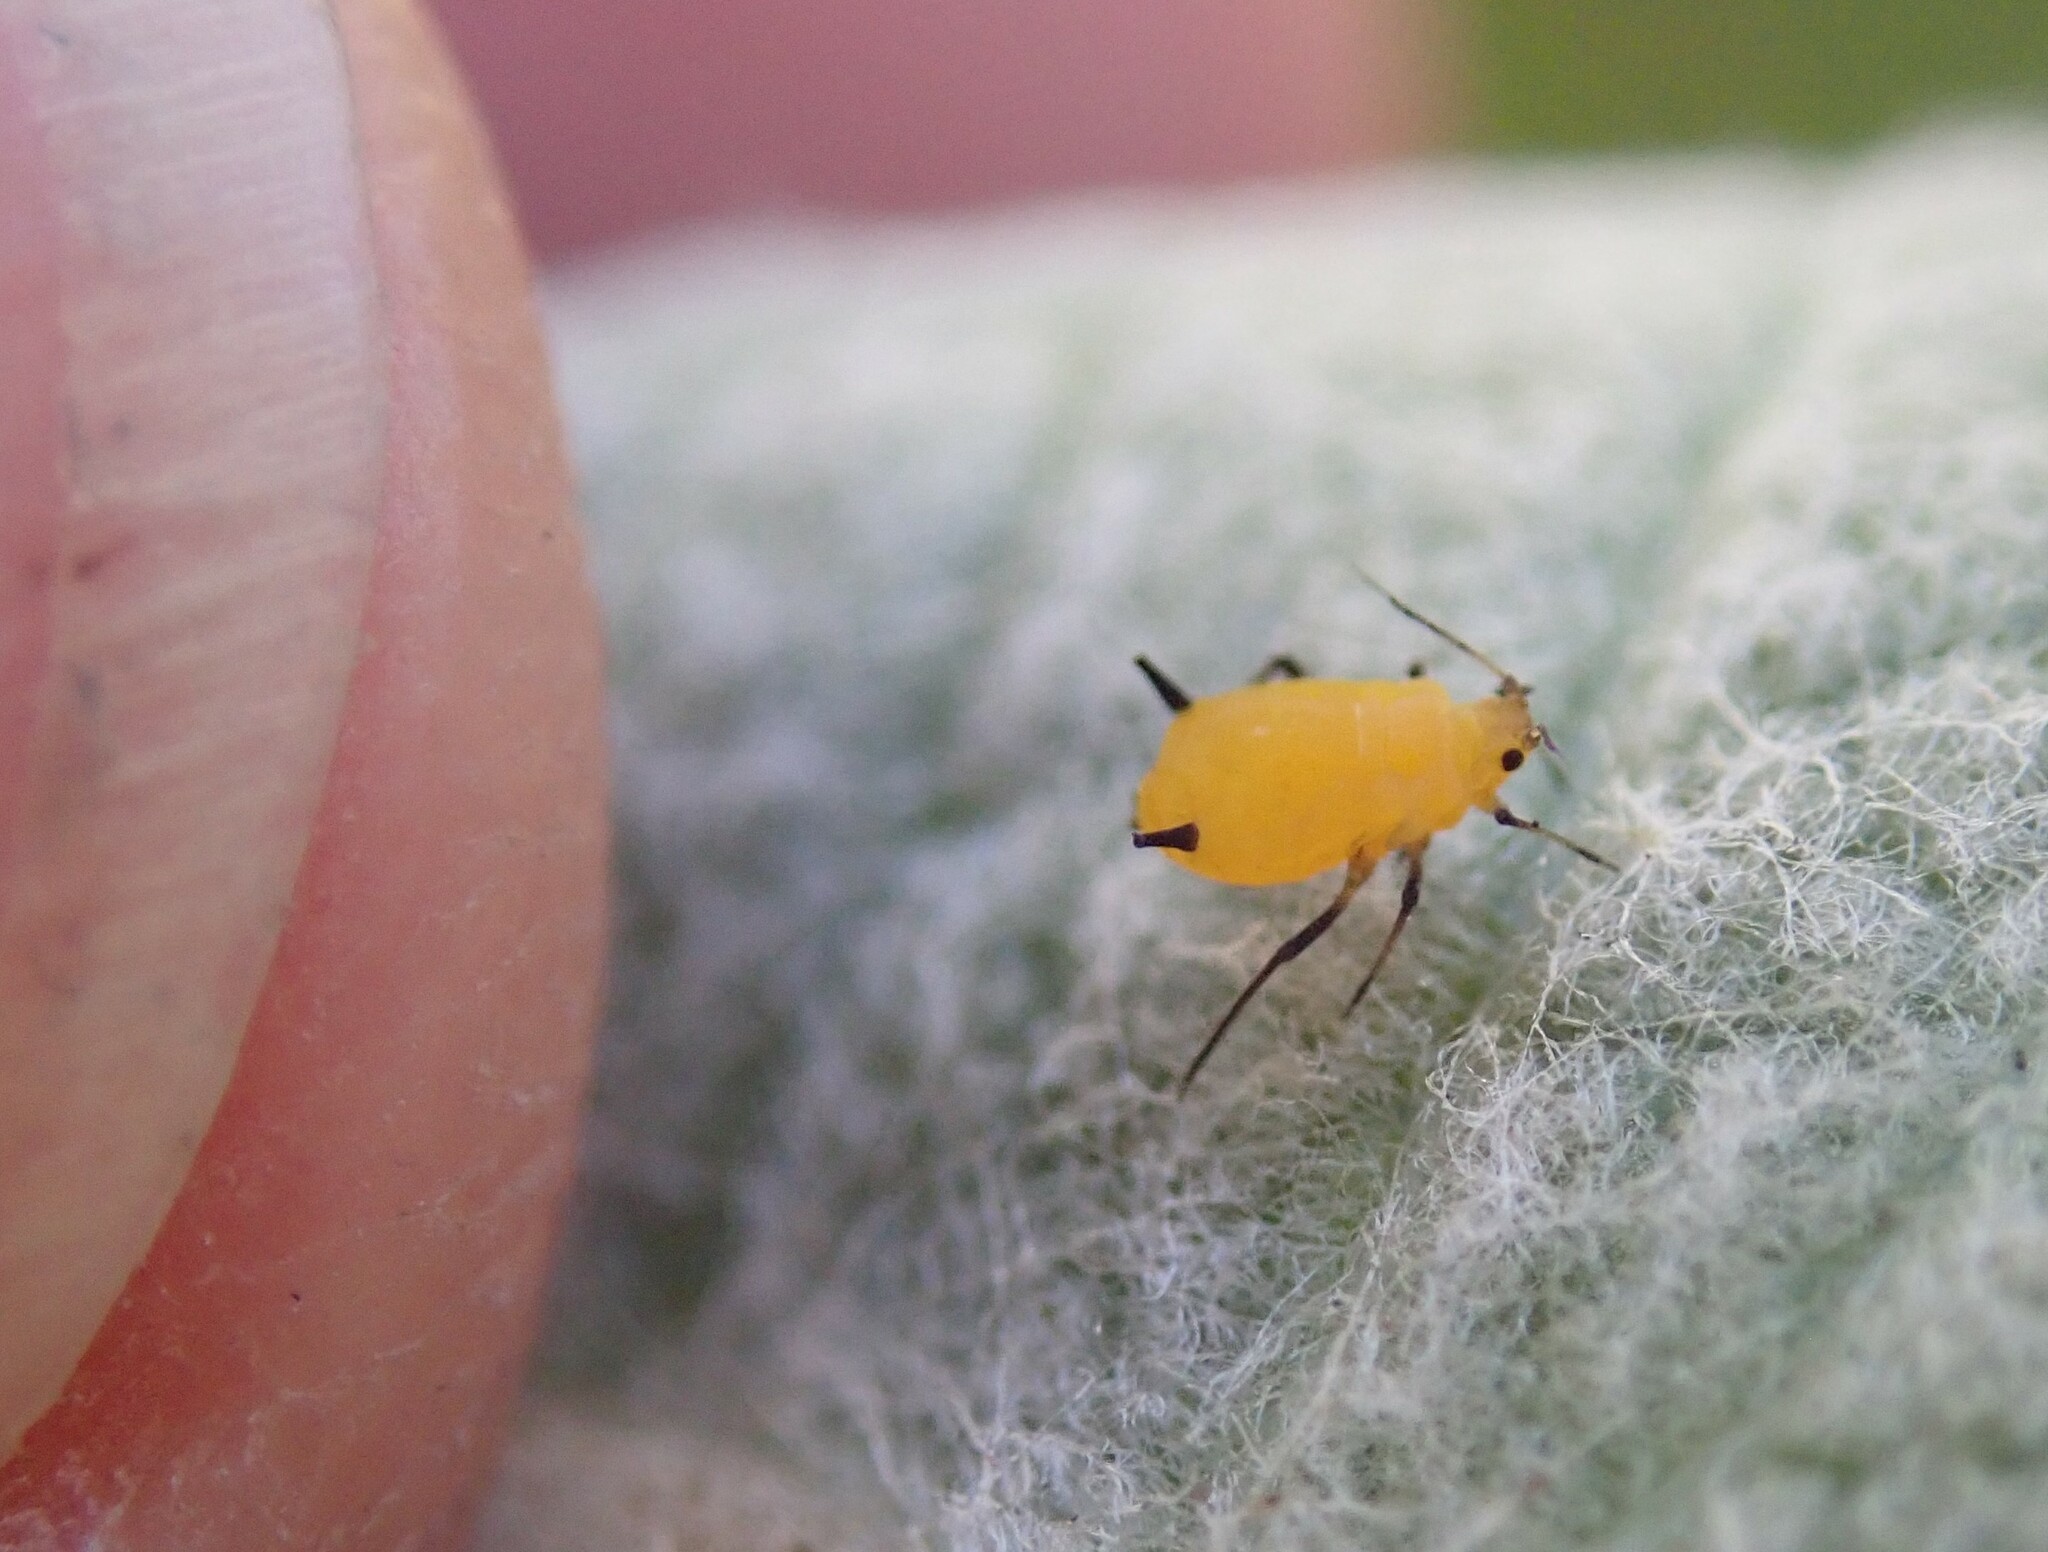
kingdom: Animalia
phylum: Arthropoda
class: Insecta
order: Hemiptera
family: Aphididae
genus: Aphis
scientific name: Aphis nerii
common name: Oleander aphid
